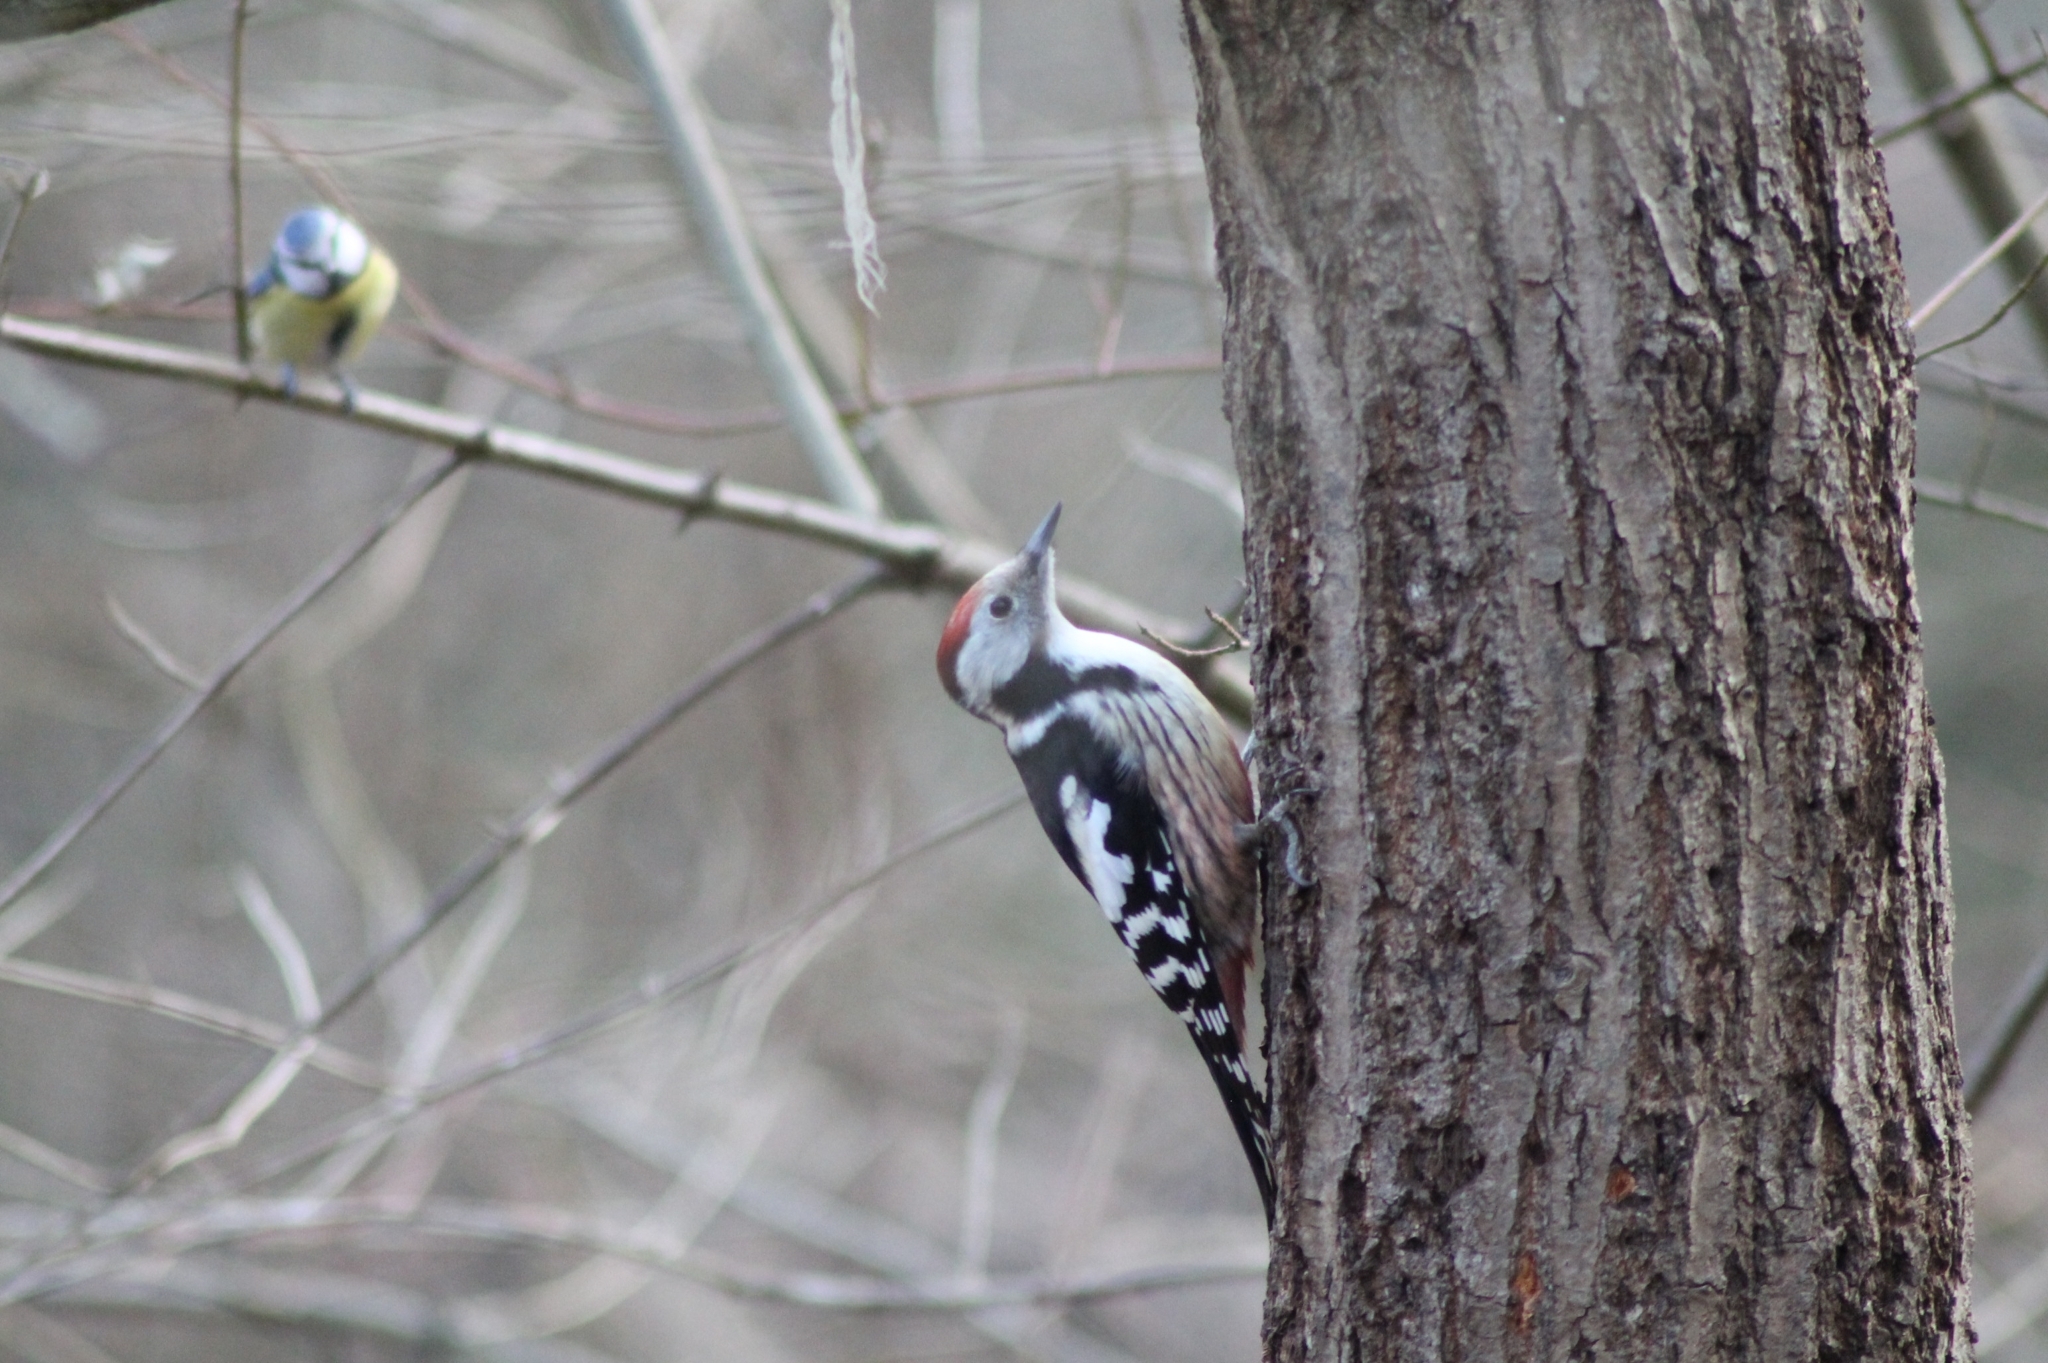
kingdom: Animalia
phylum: Chordata
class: Aves
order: Piciformes
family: Picidae
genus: Dendrocoptes
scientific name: Dendrocoptes medius
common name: Middle spotted woodpecker
